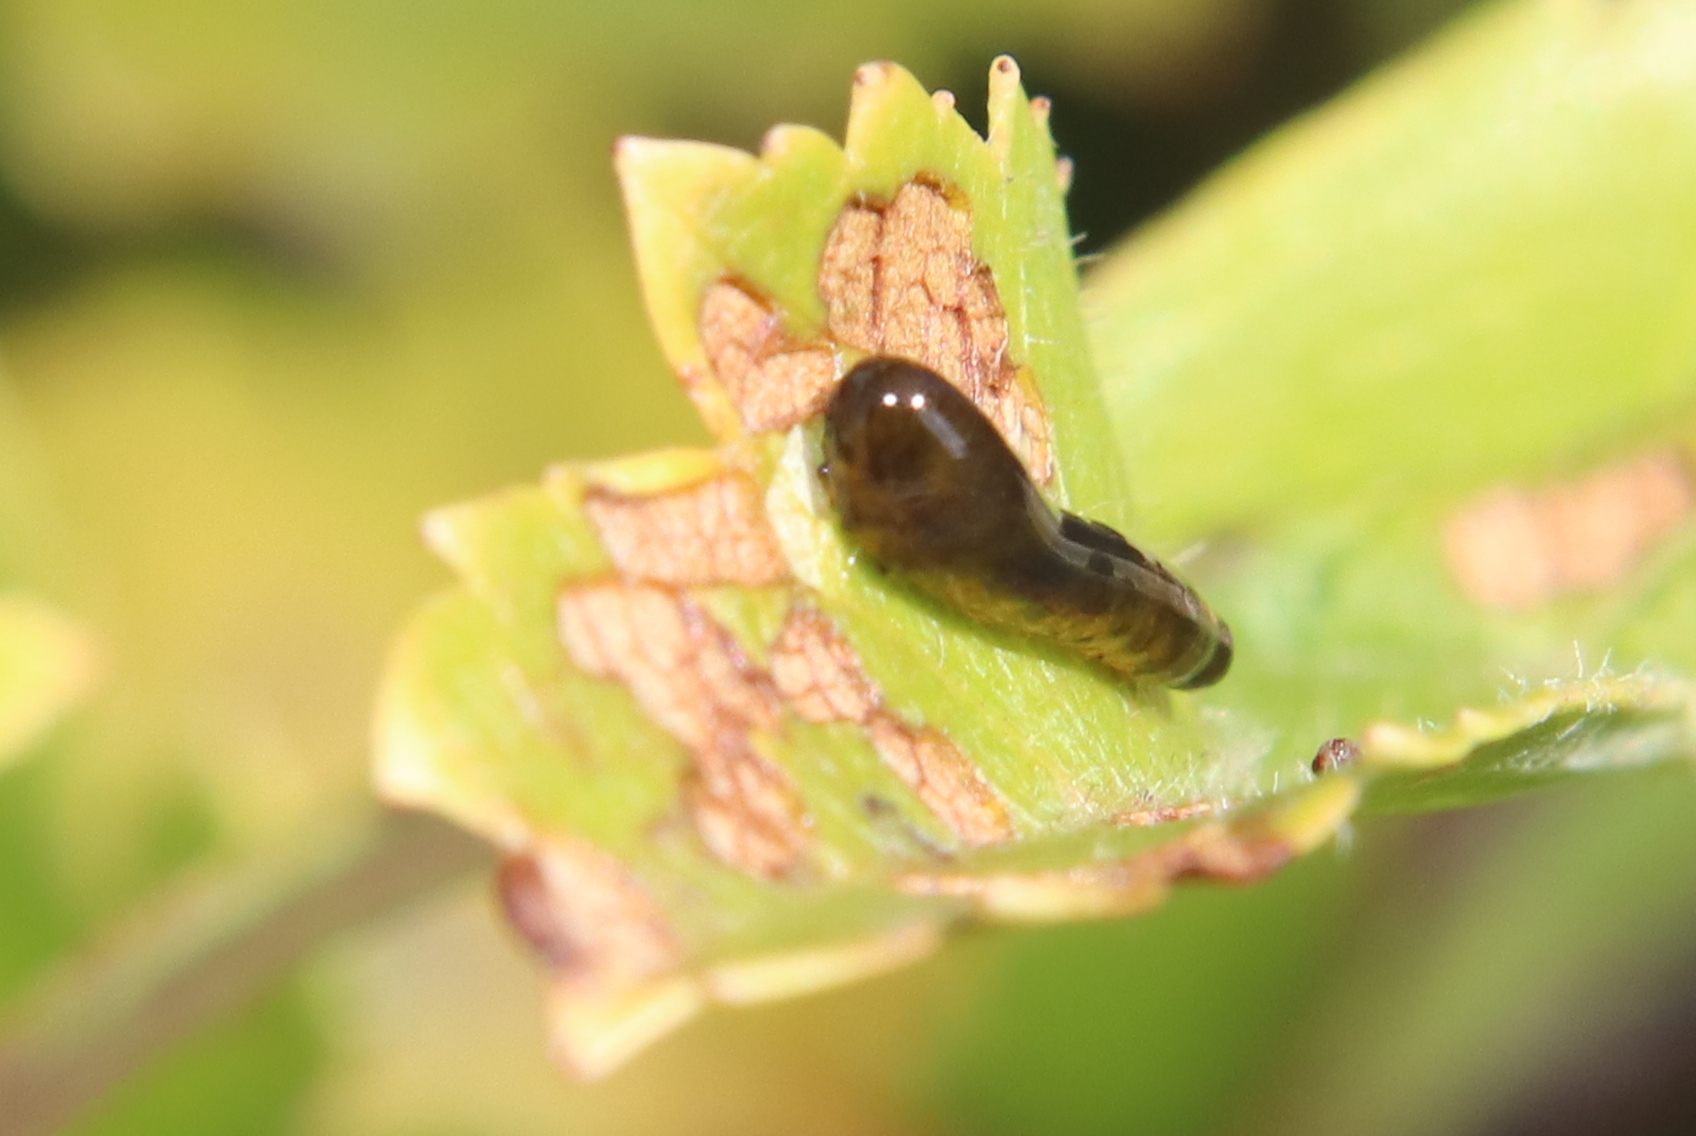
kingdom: Animalia
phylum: Arthropoda
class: Insecta
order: Hymenoptera
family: Tenthredinidae
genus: Caliroa
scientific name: Caliroa cerasi
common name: Pear sawfly
